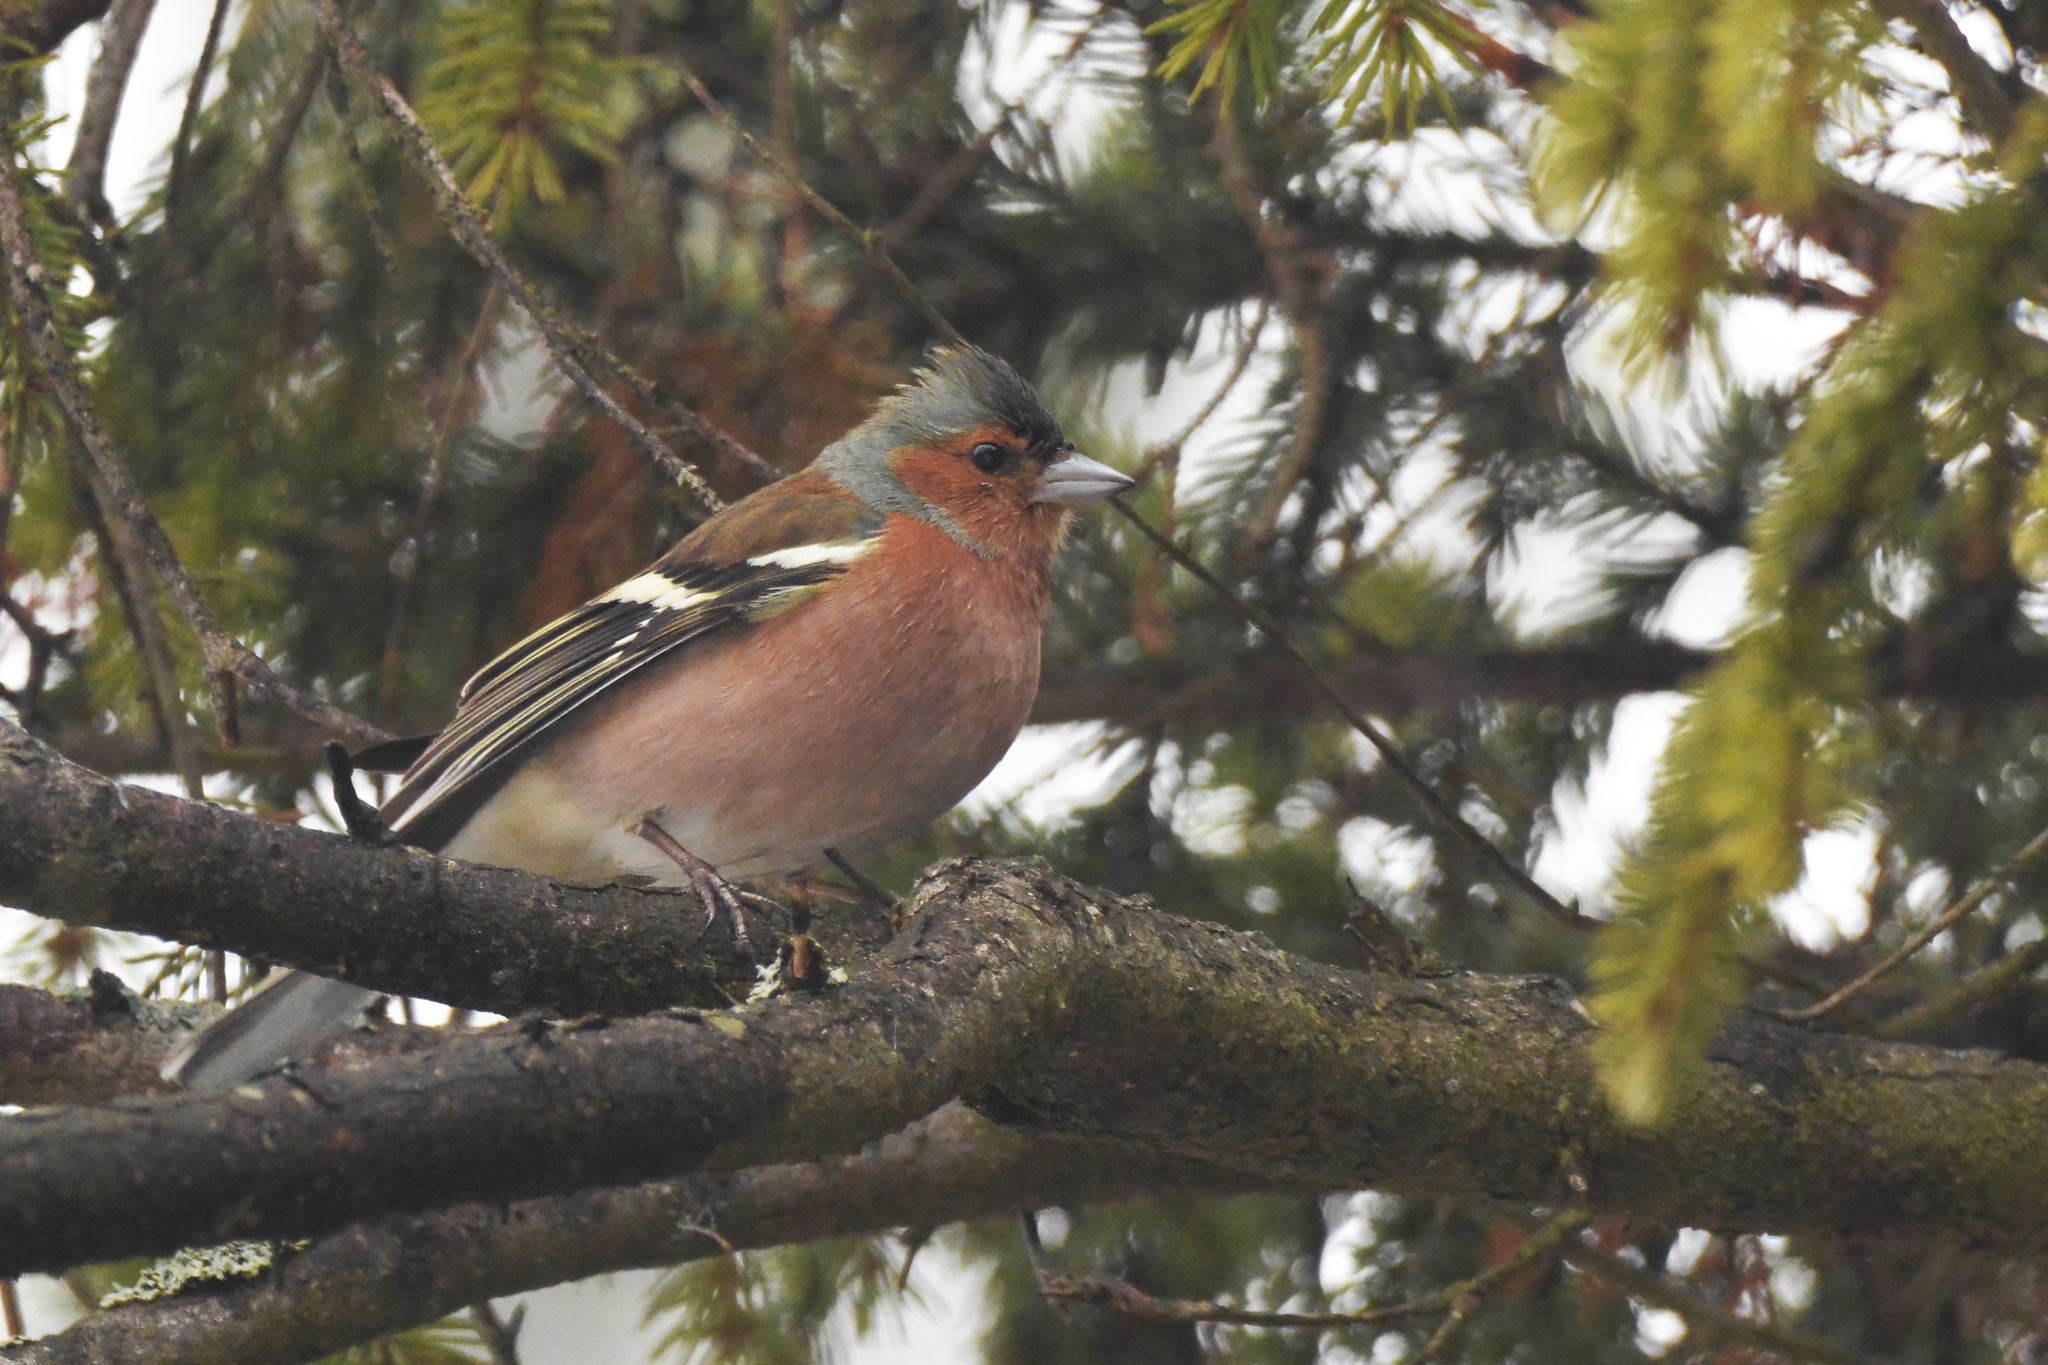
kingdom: Animalia
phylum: Chordata
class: Aves
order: Passeriformes
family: Fringillidae
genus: Fringilla
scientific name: Fringilla coelebs
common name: Common chaffinch
